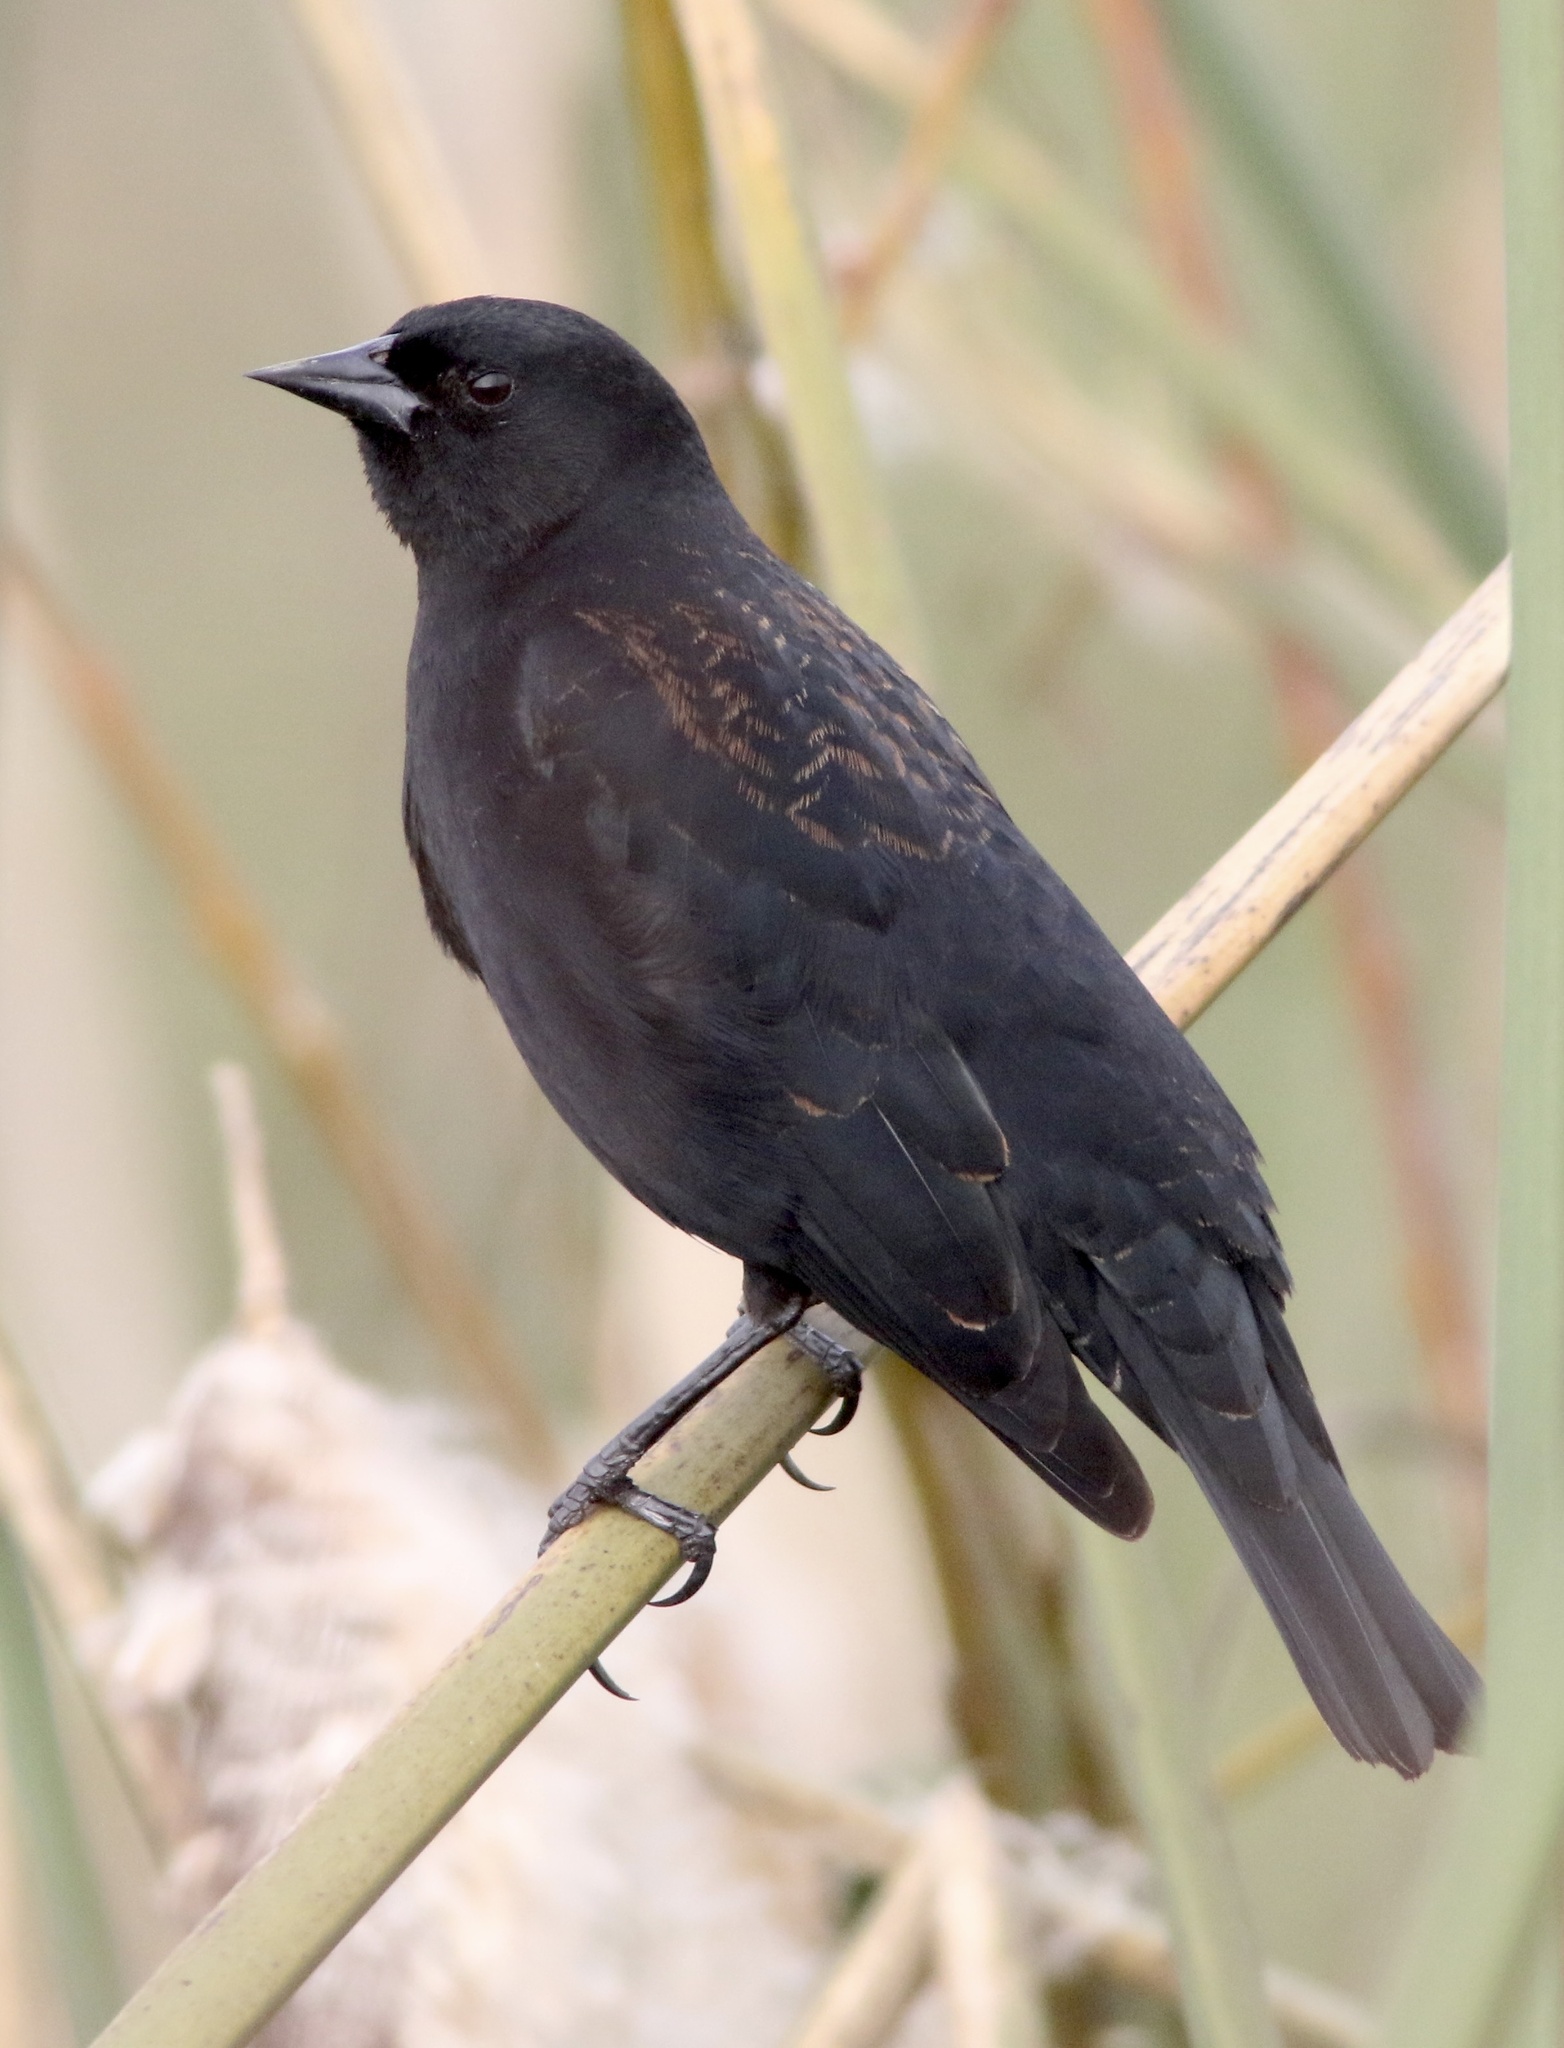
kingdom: Animalia
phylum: Chordata
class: Aves
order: Passeriformes
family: Icteridae
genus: Agelaius
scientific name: Agelaius phoeniceus
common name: Red-winged blackbird
